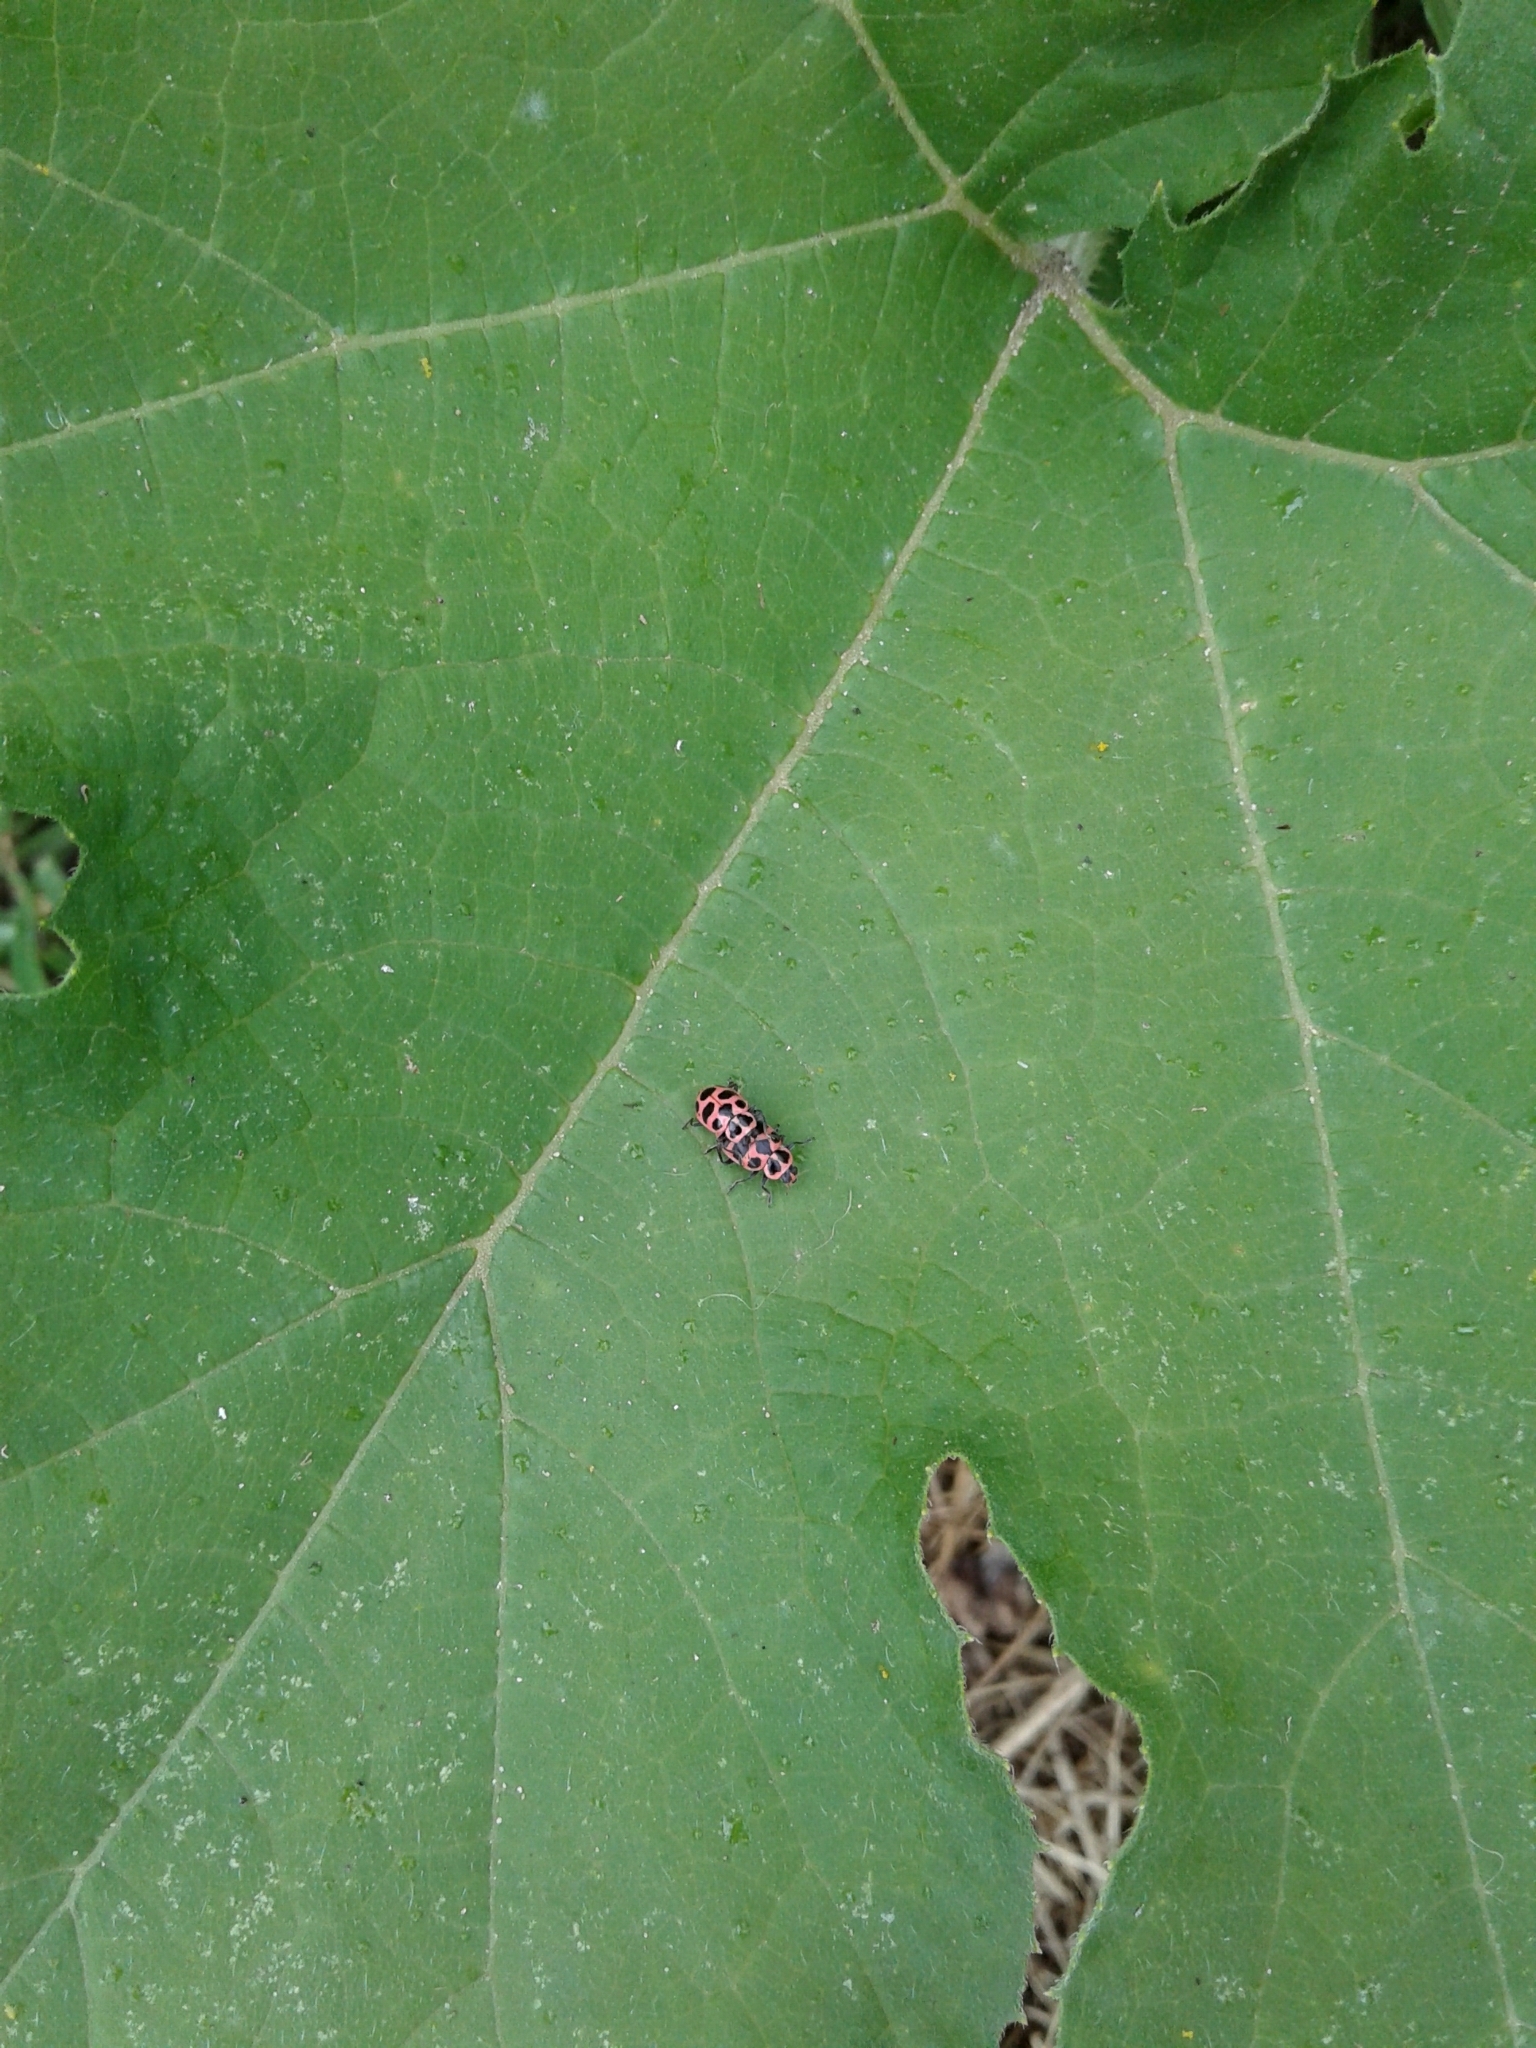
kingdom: Animalia
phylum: Arthropoda
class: Insecta
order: Coleoptera
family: Coccinellidae
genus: Coleomegilla
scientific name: Coleomegilla maculata
